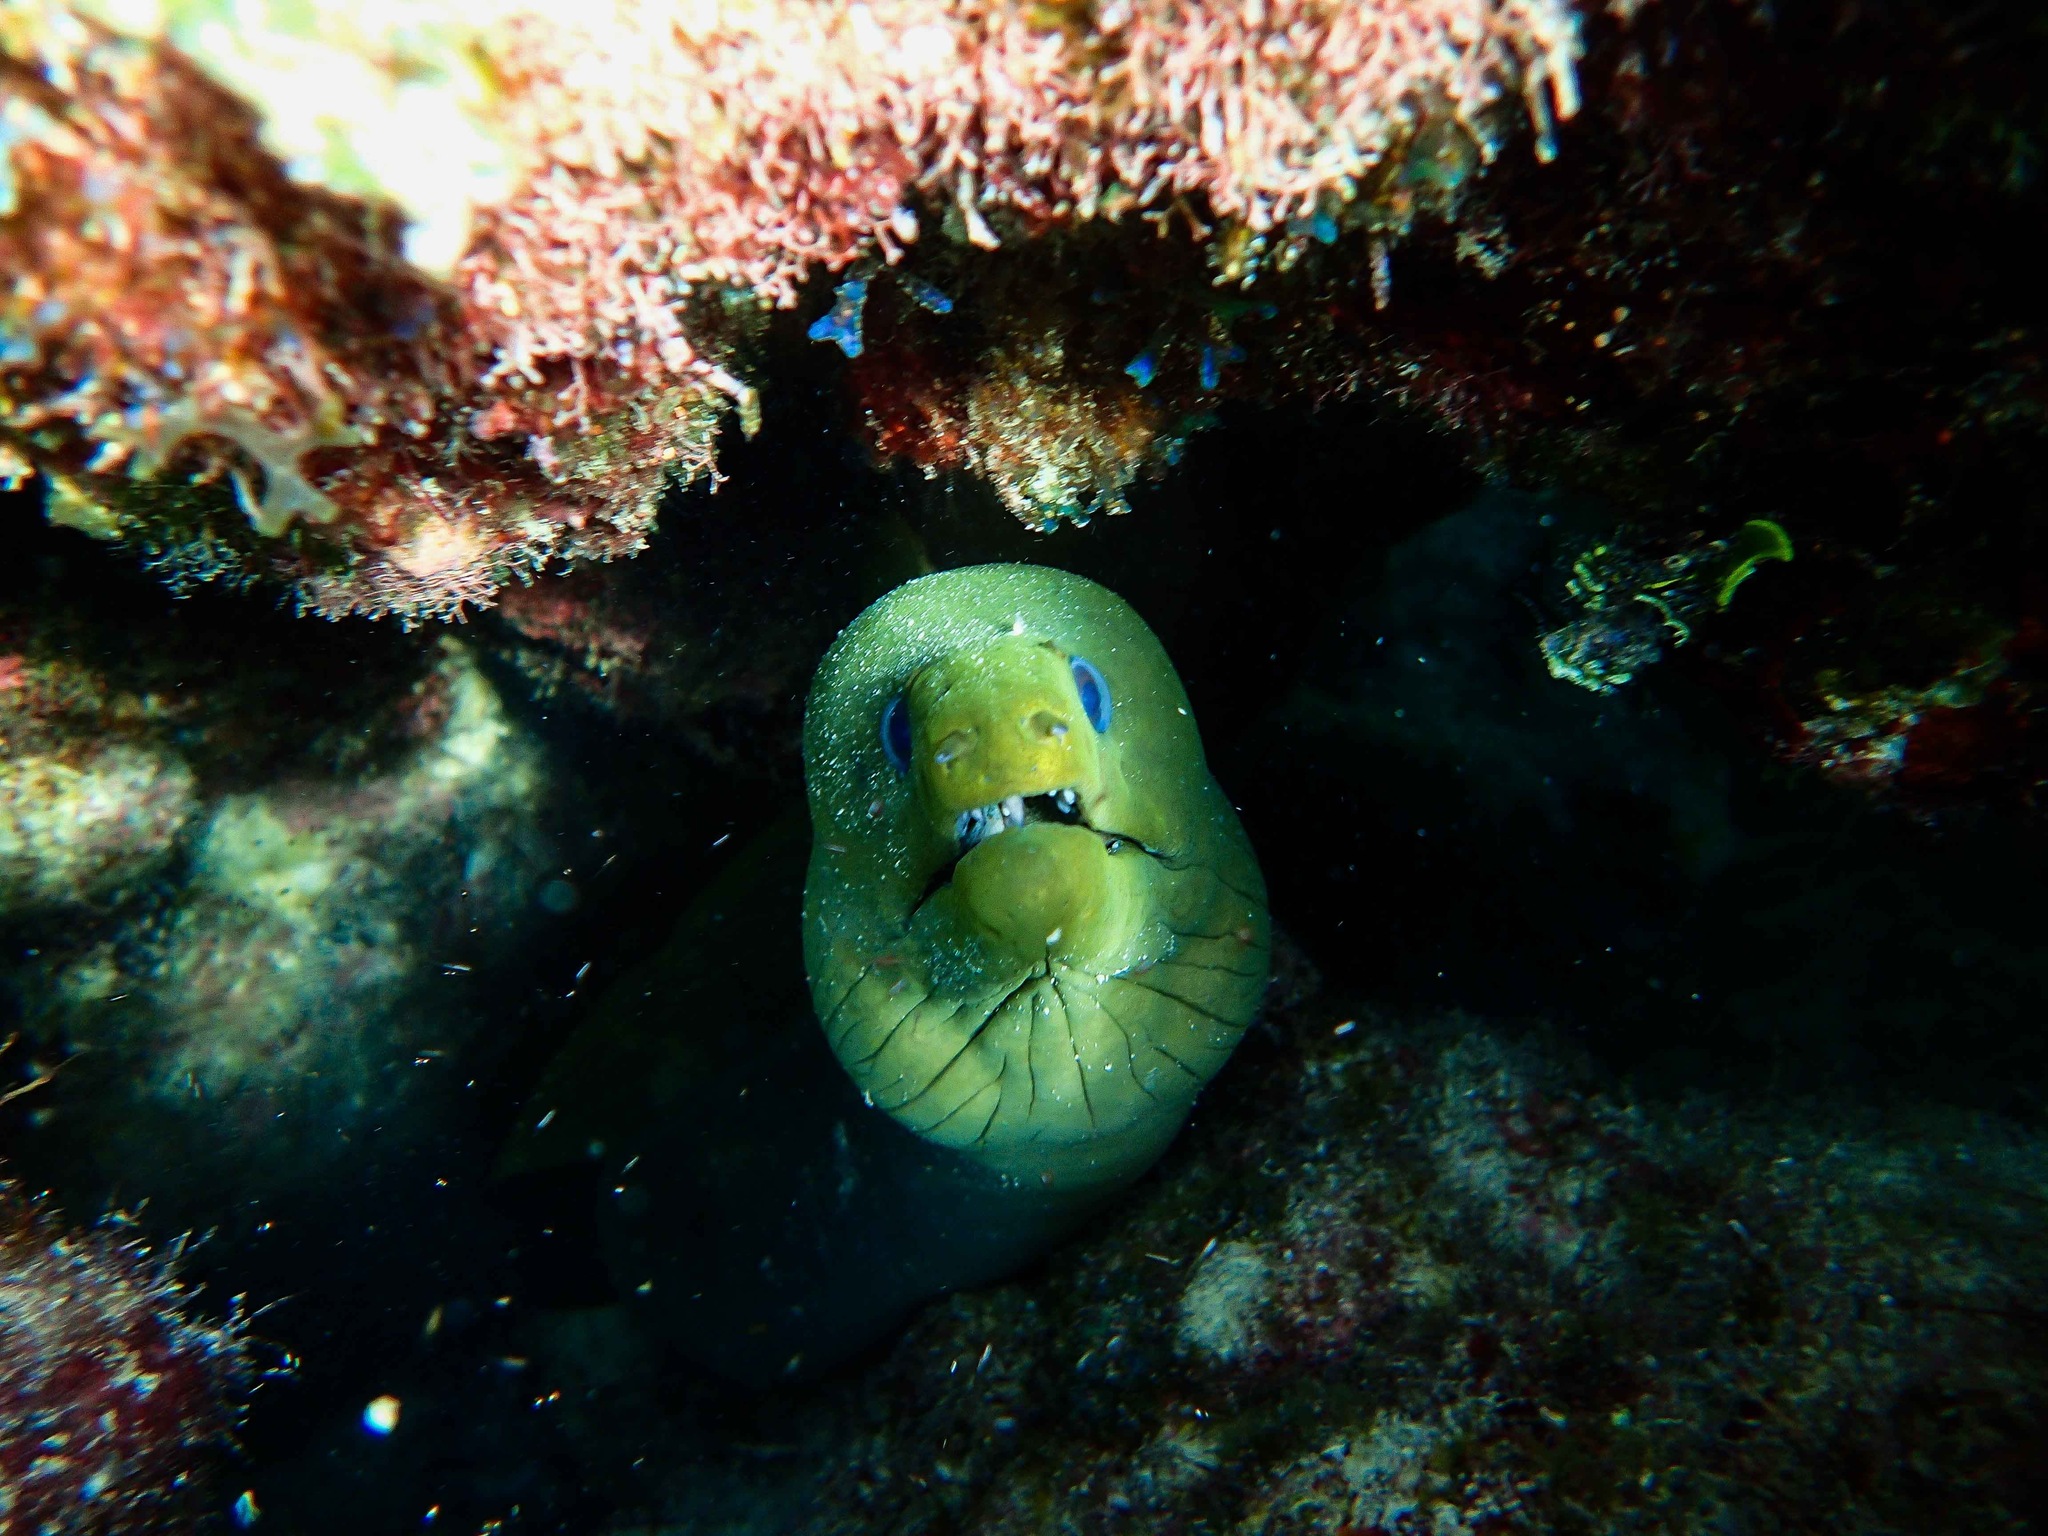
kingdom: Animalia
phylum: Chordata
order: Anguilliformes
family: Muraenidae
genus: Gymnothorax
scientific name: Gymnothorax funebris
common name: Green moray
